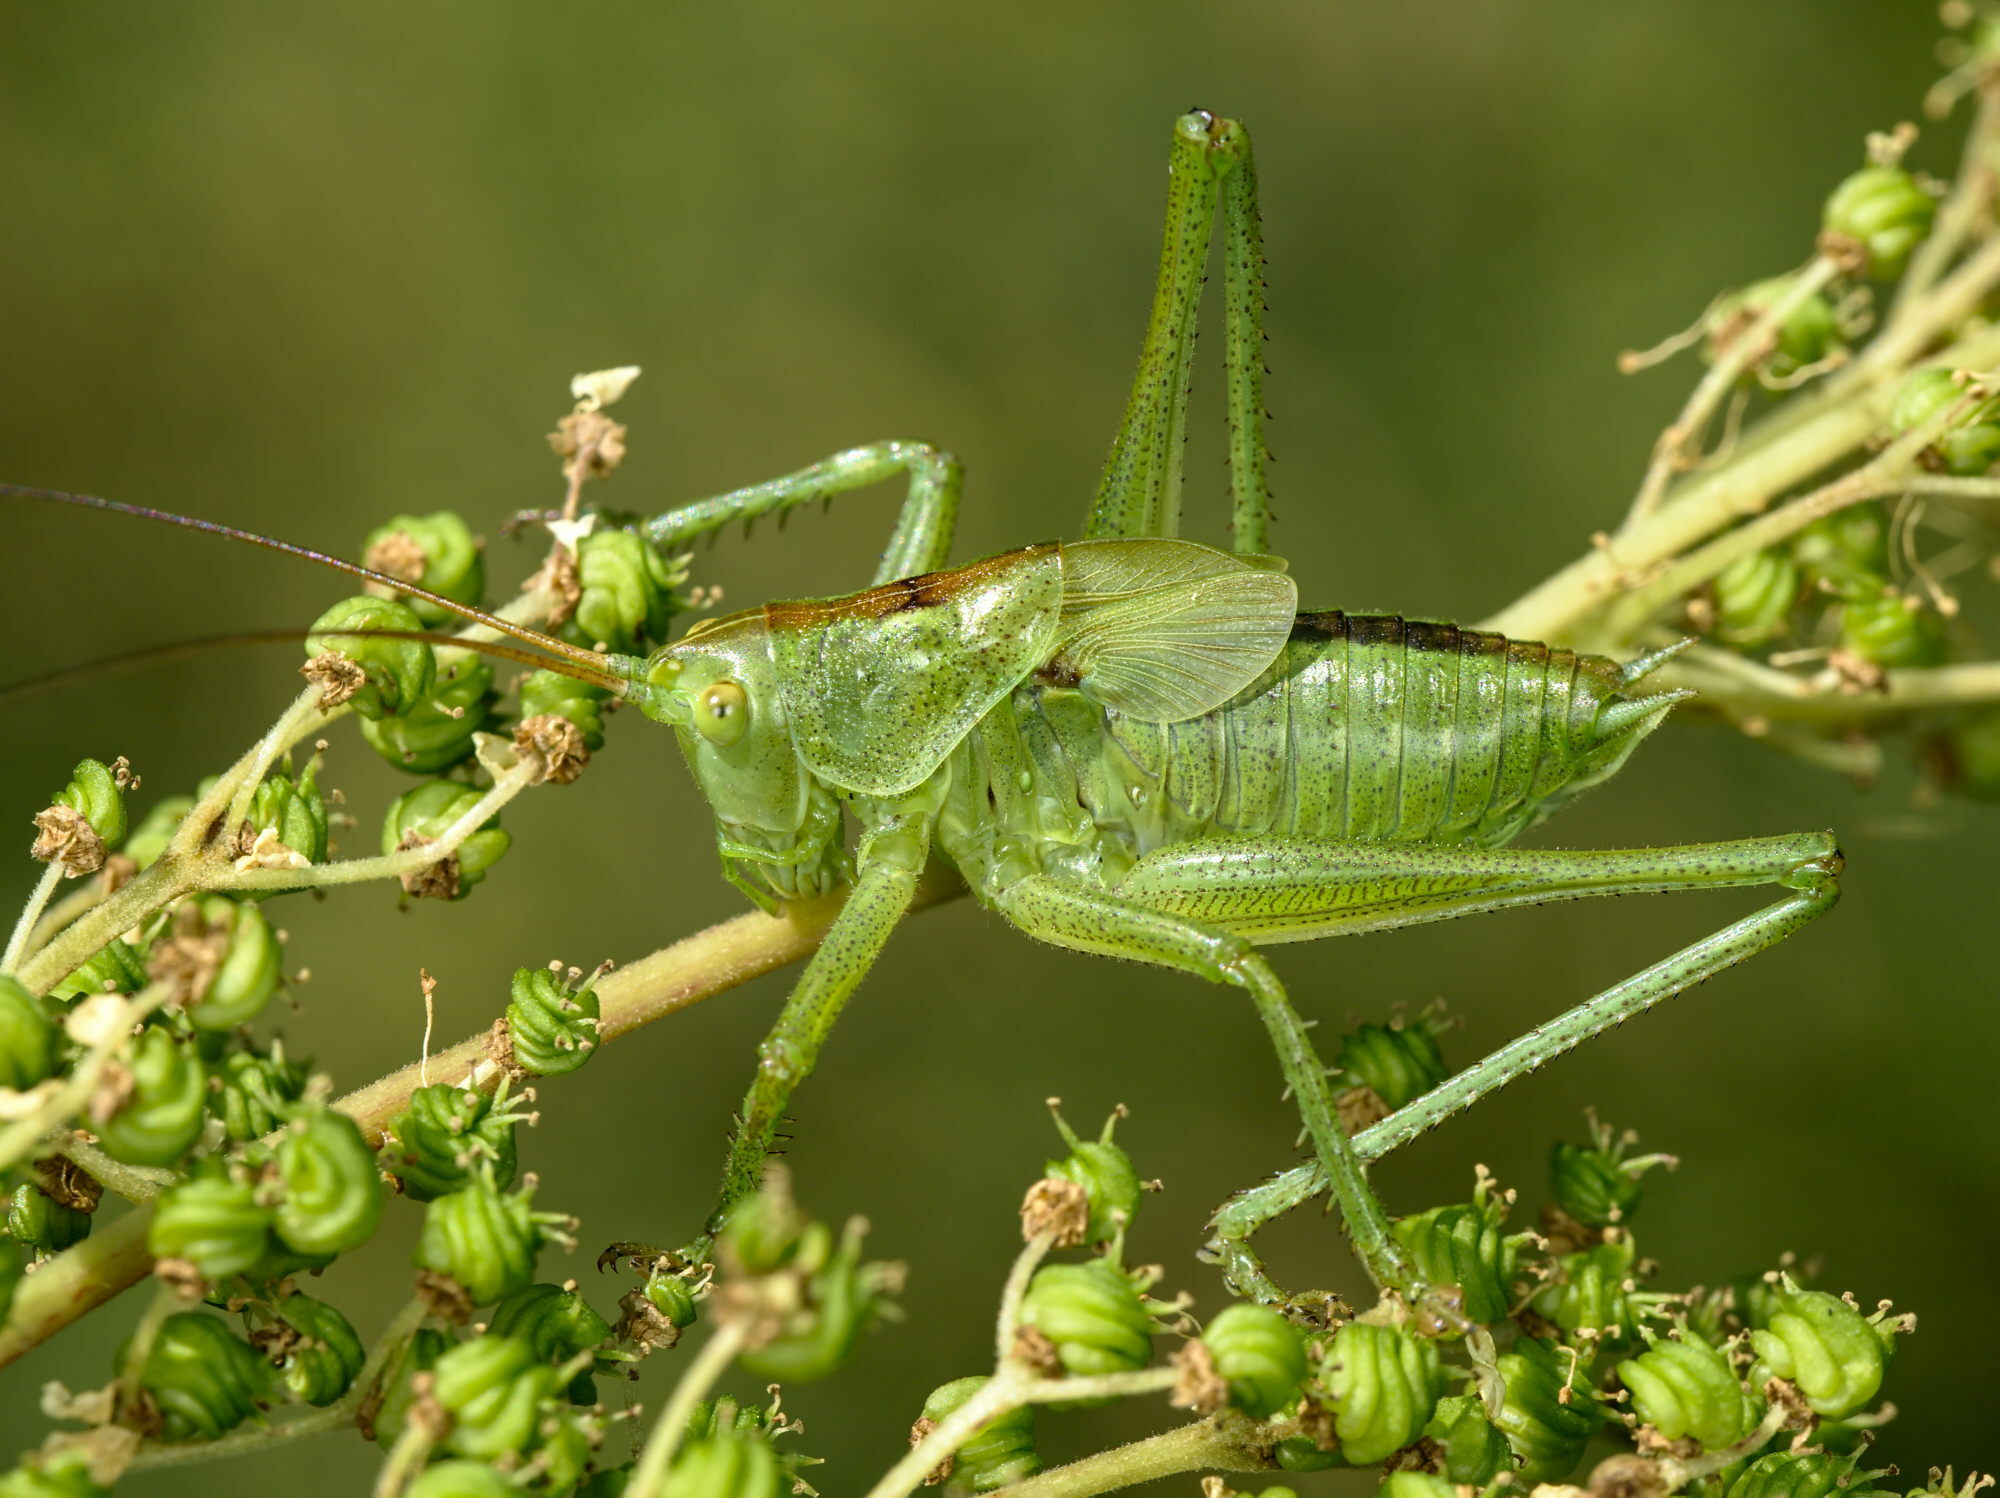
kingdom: Animalia
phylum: Arthropoda
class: Insecta
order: Orthoptera
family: Tettigoniidae
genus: Tettigonia
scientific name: Tettigonia cantans
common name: Upland green bush-cricket
